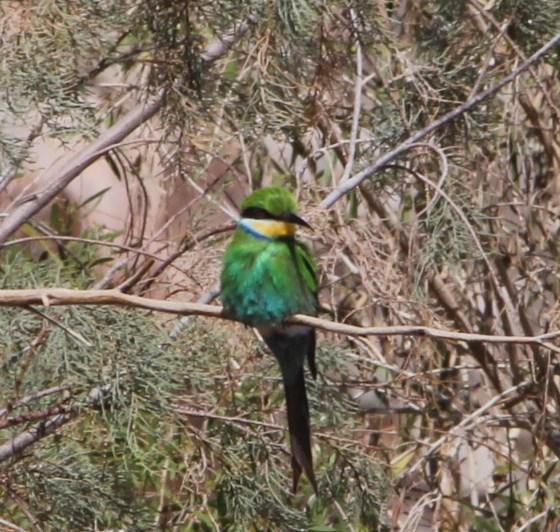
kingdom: Animalia
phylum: Chordata
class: Aves
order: Coraciiformes
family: Meropidae
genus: Merops
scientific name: Merops hirundineus
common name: Swallow-tailed bee-eater
